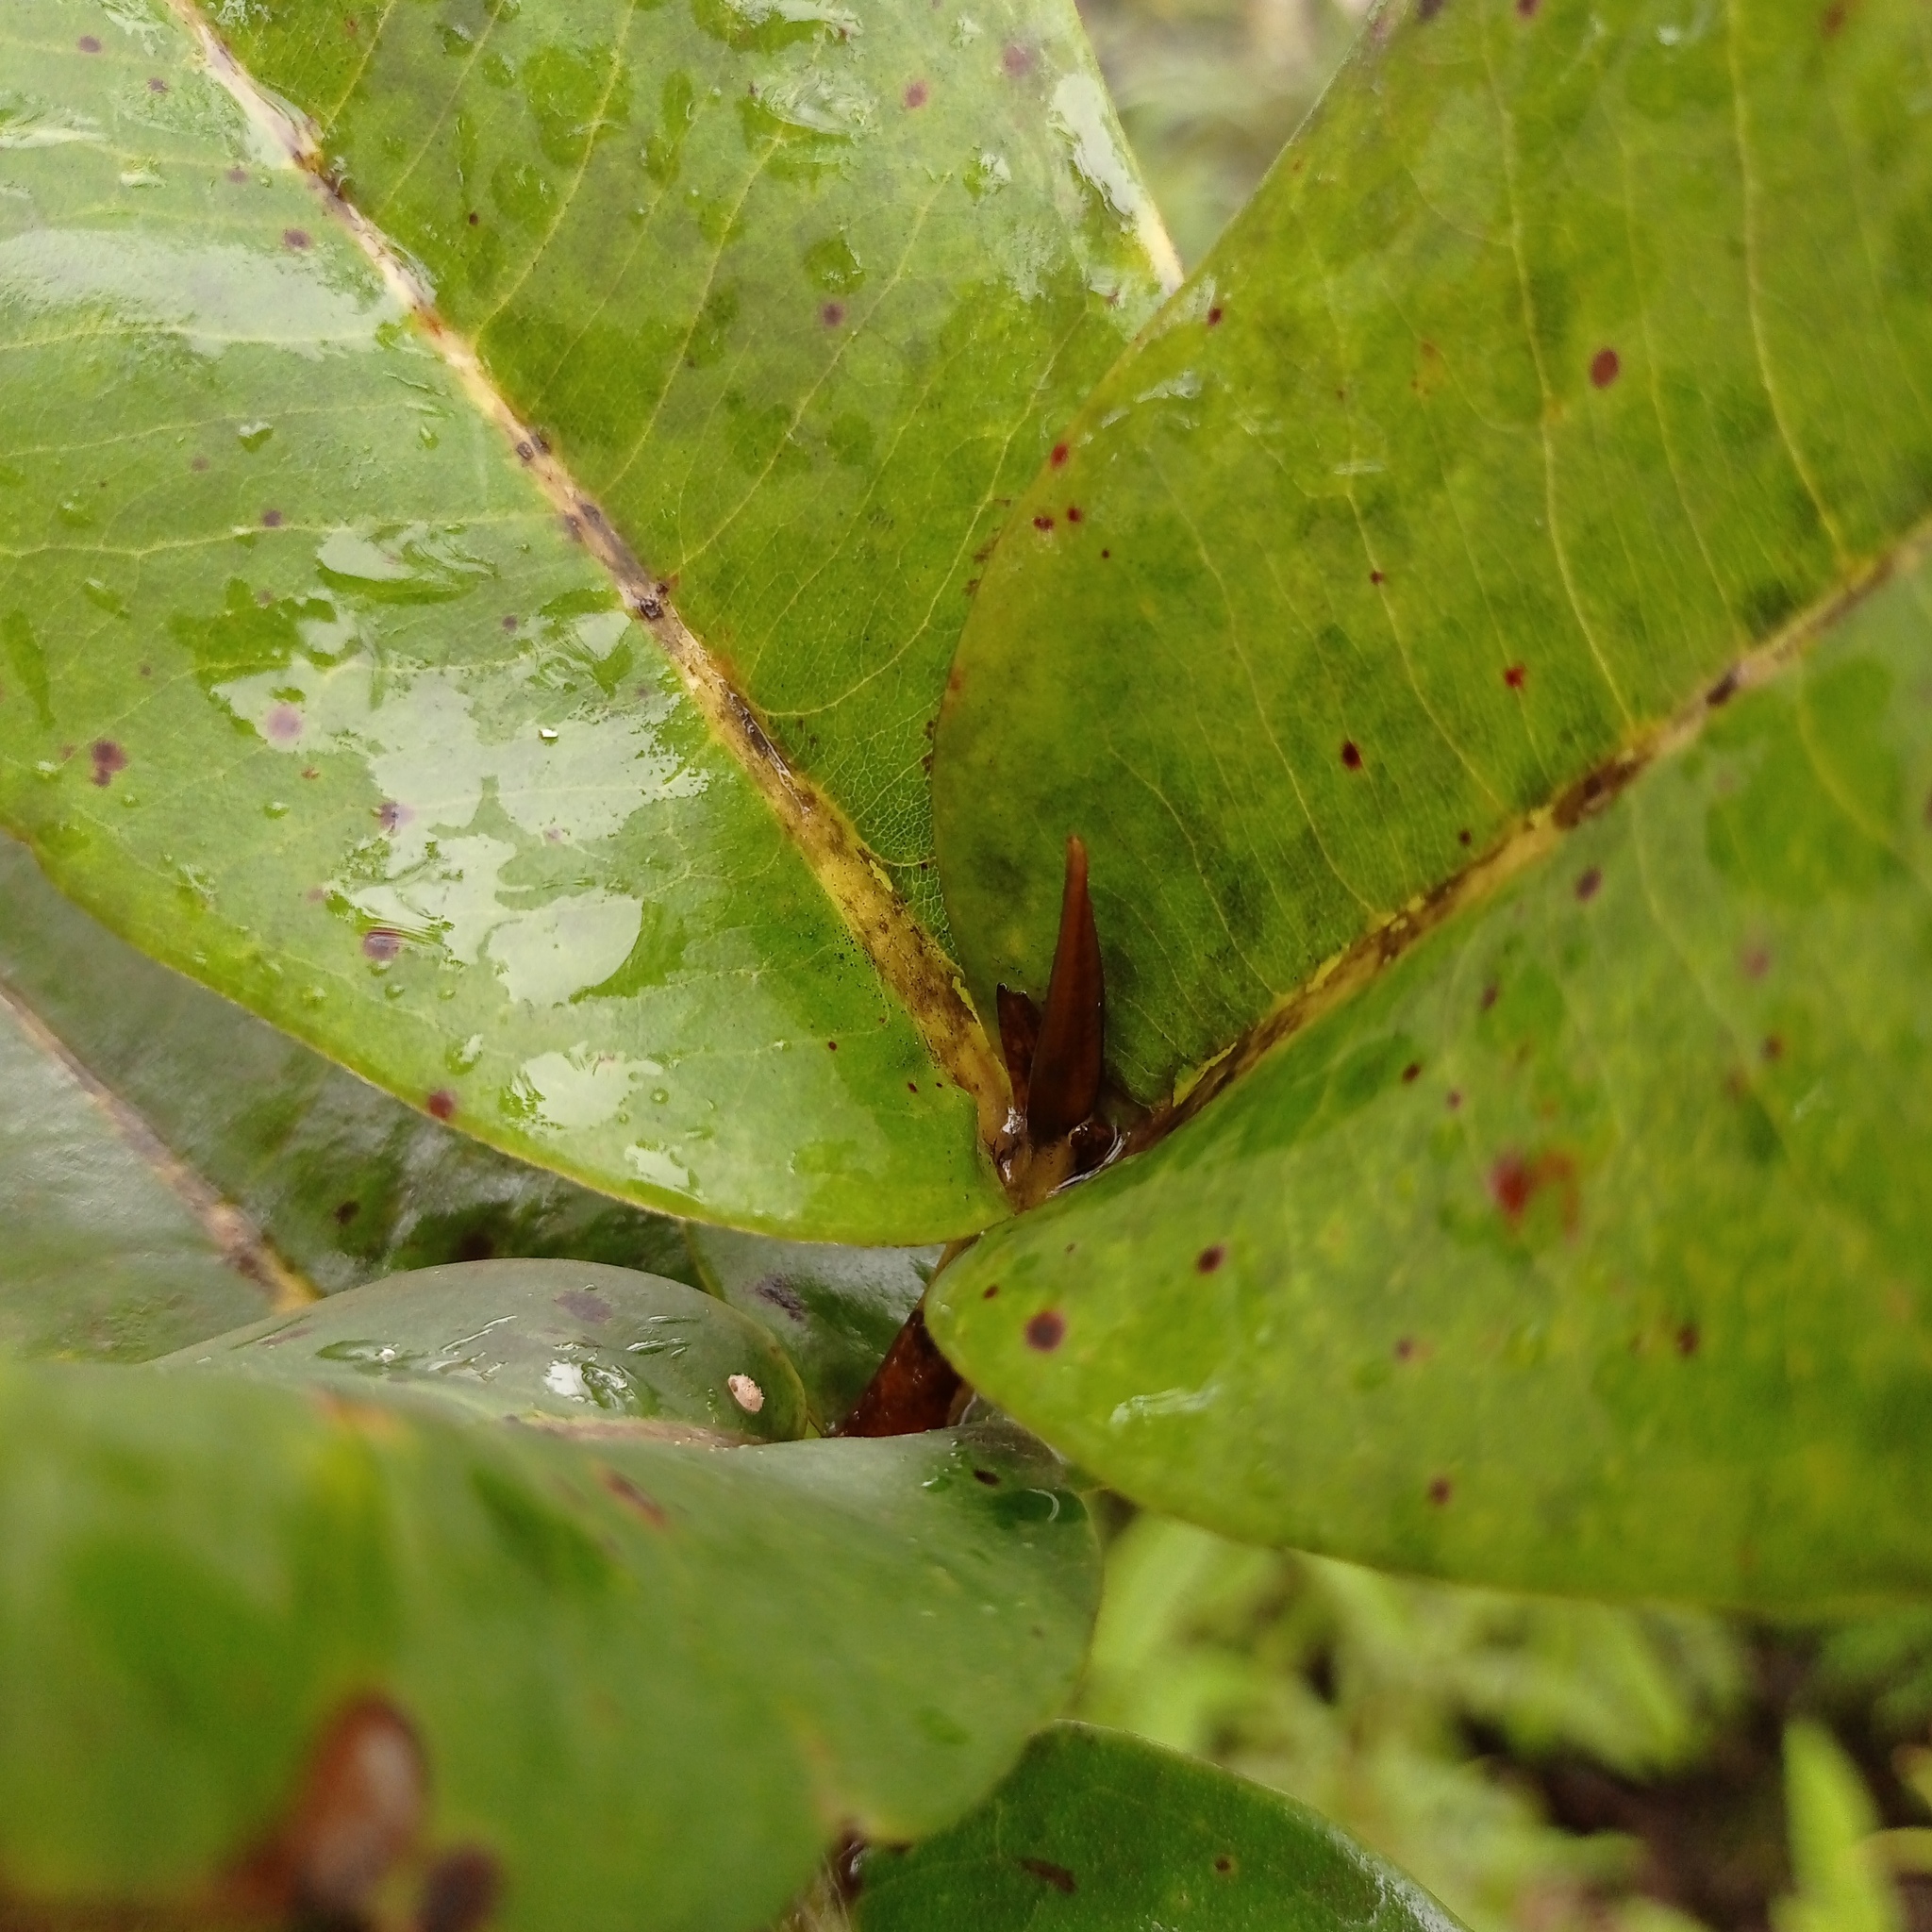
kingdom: Plantae
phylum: Tracheophyta
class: Magnoliopsida
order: Myrtales
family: Myrtaceae
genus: Xanthostemon
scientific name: Xanthostemon verus
